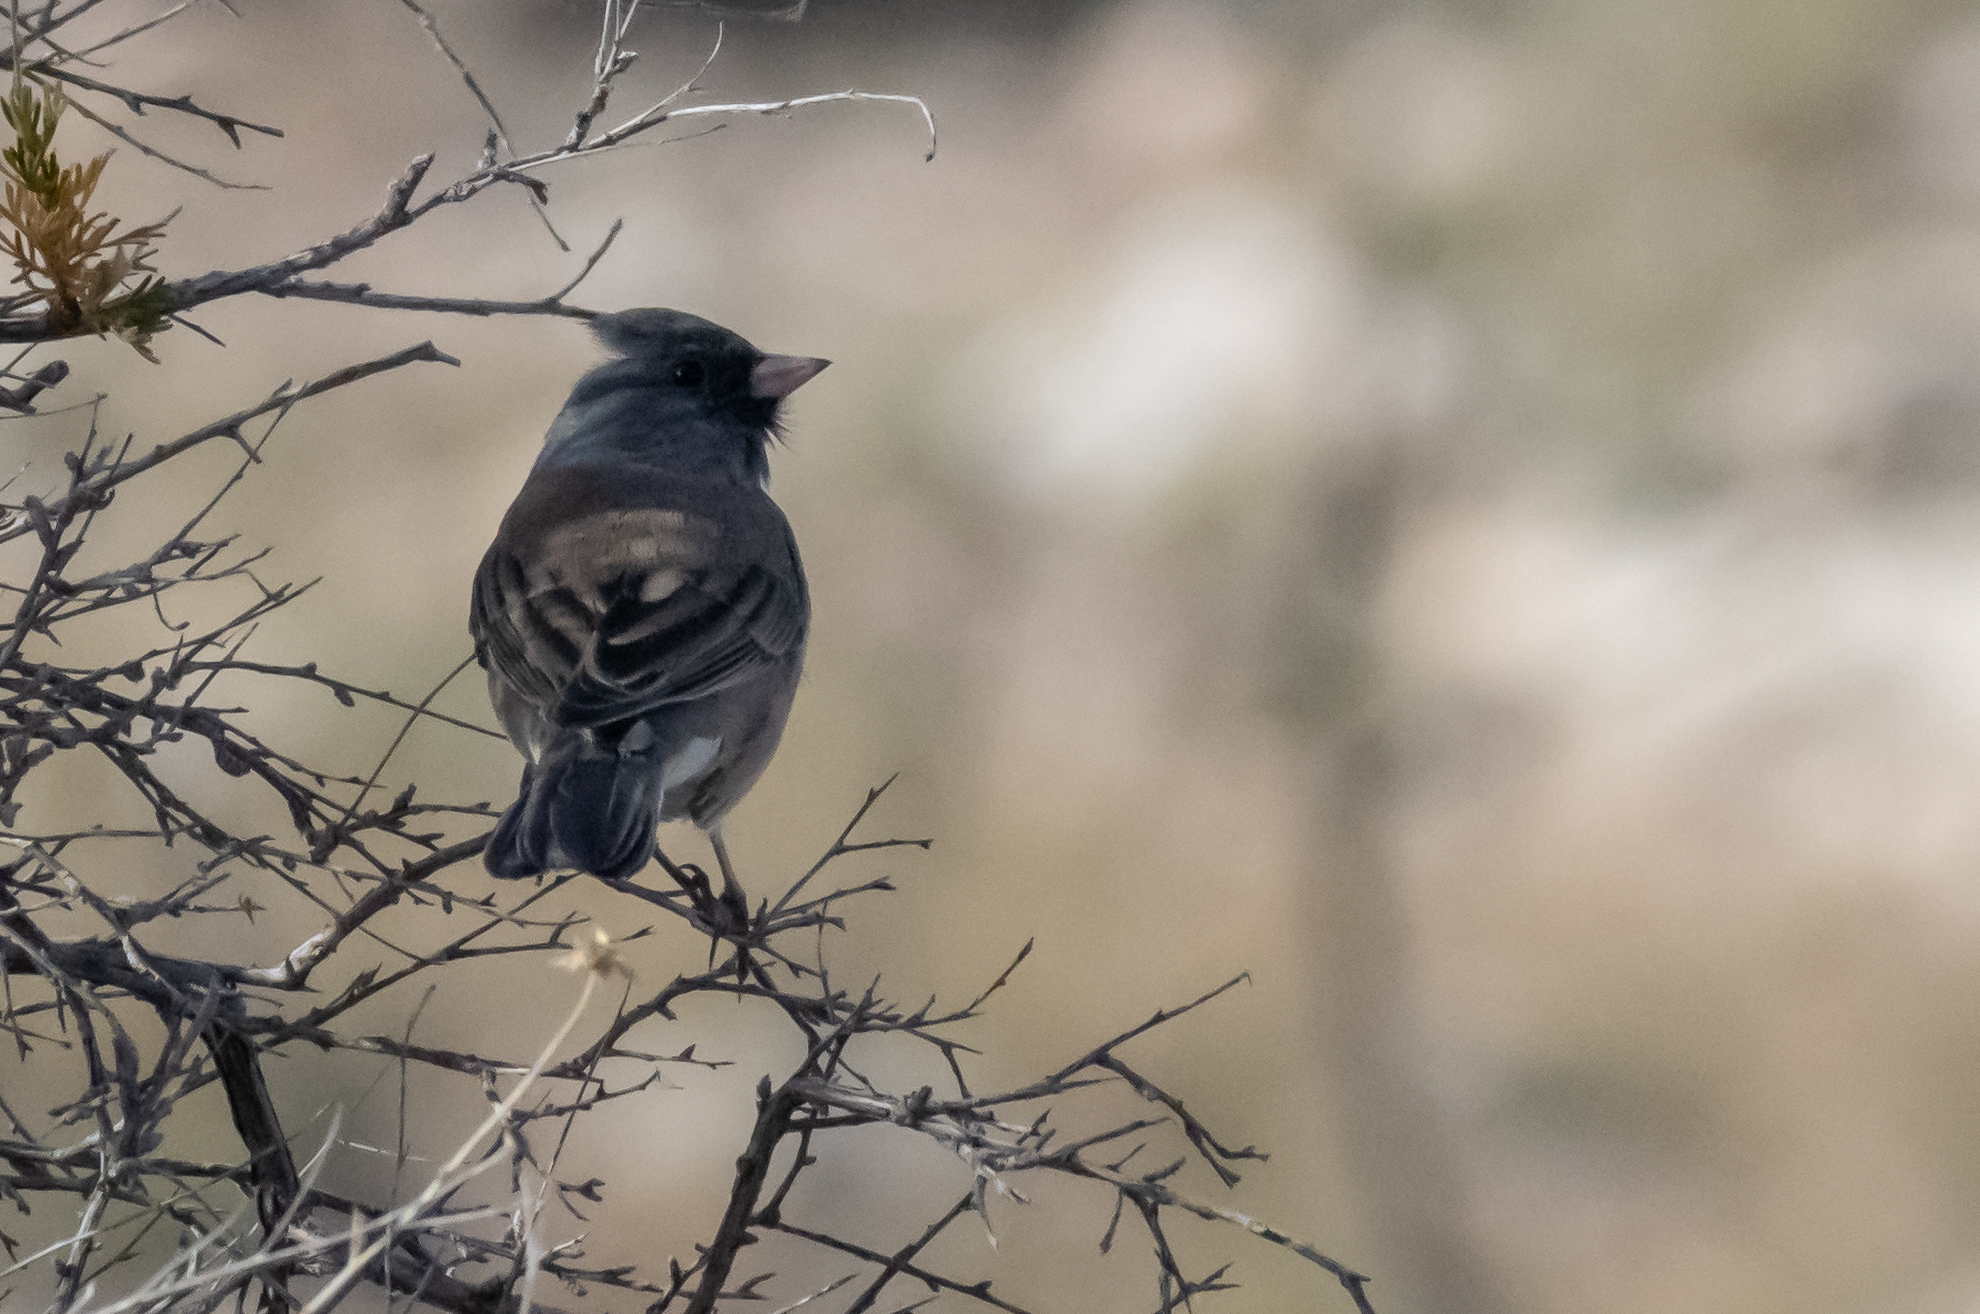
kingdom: Animalia
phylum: Chordata
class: Aves
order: Passeriformes
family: Passerellidae
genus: Junco
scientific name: Junco hyemalis
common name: Dark-eyed junco
